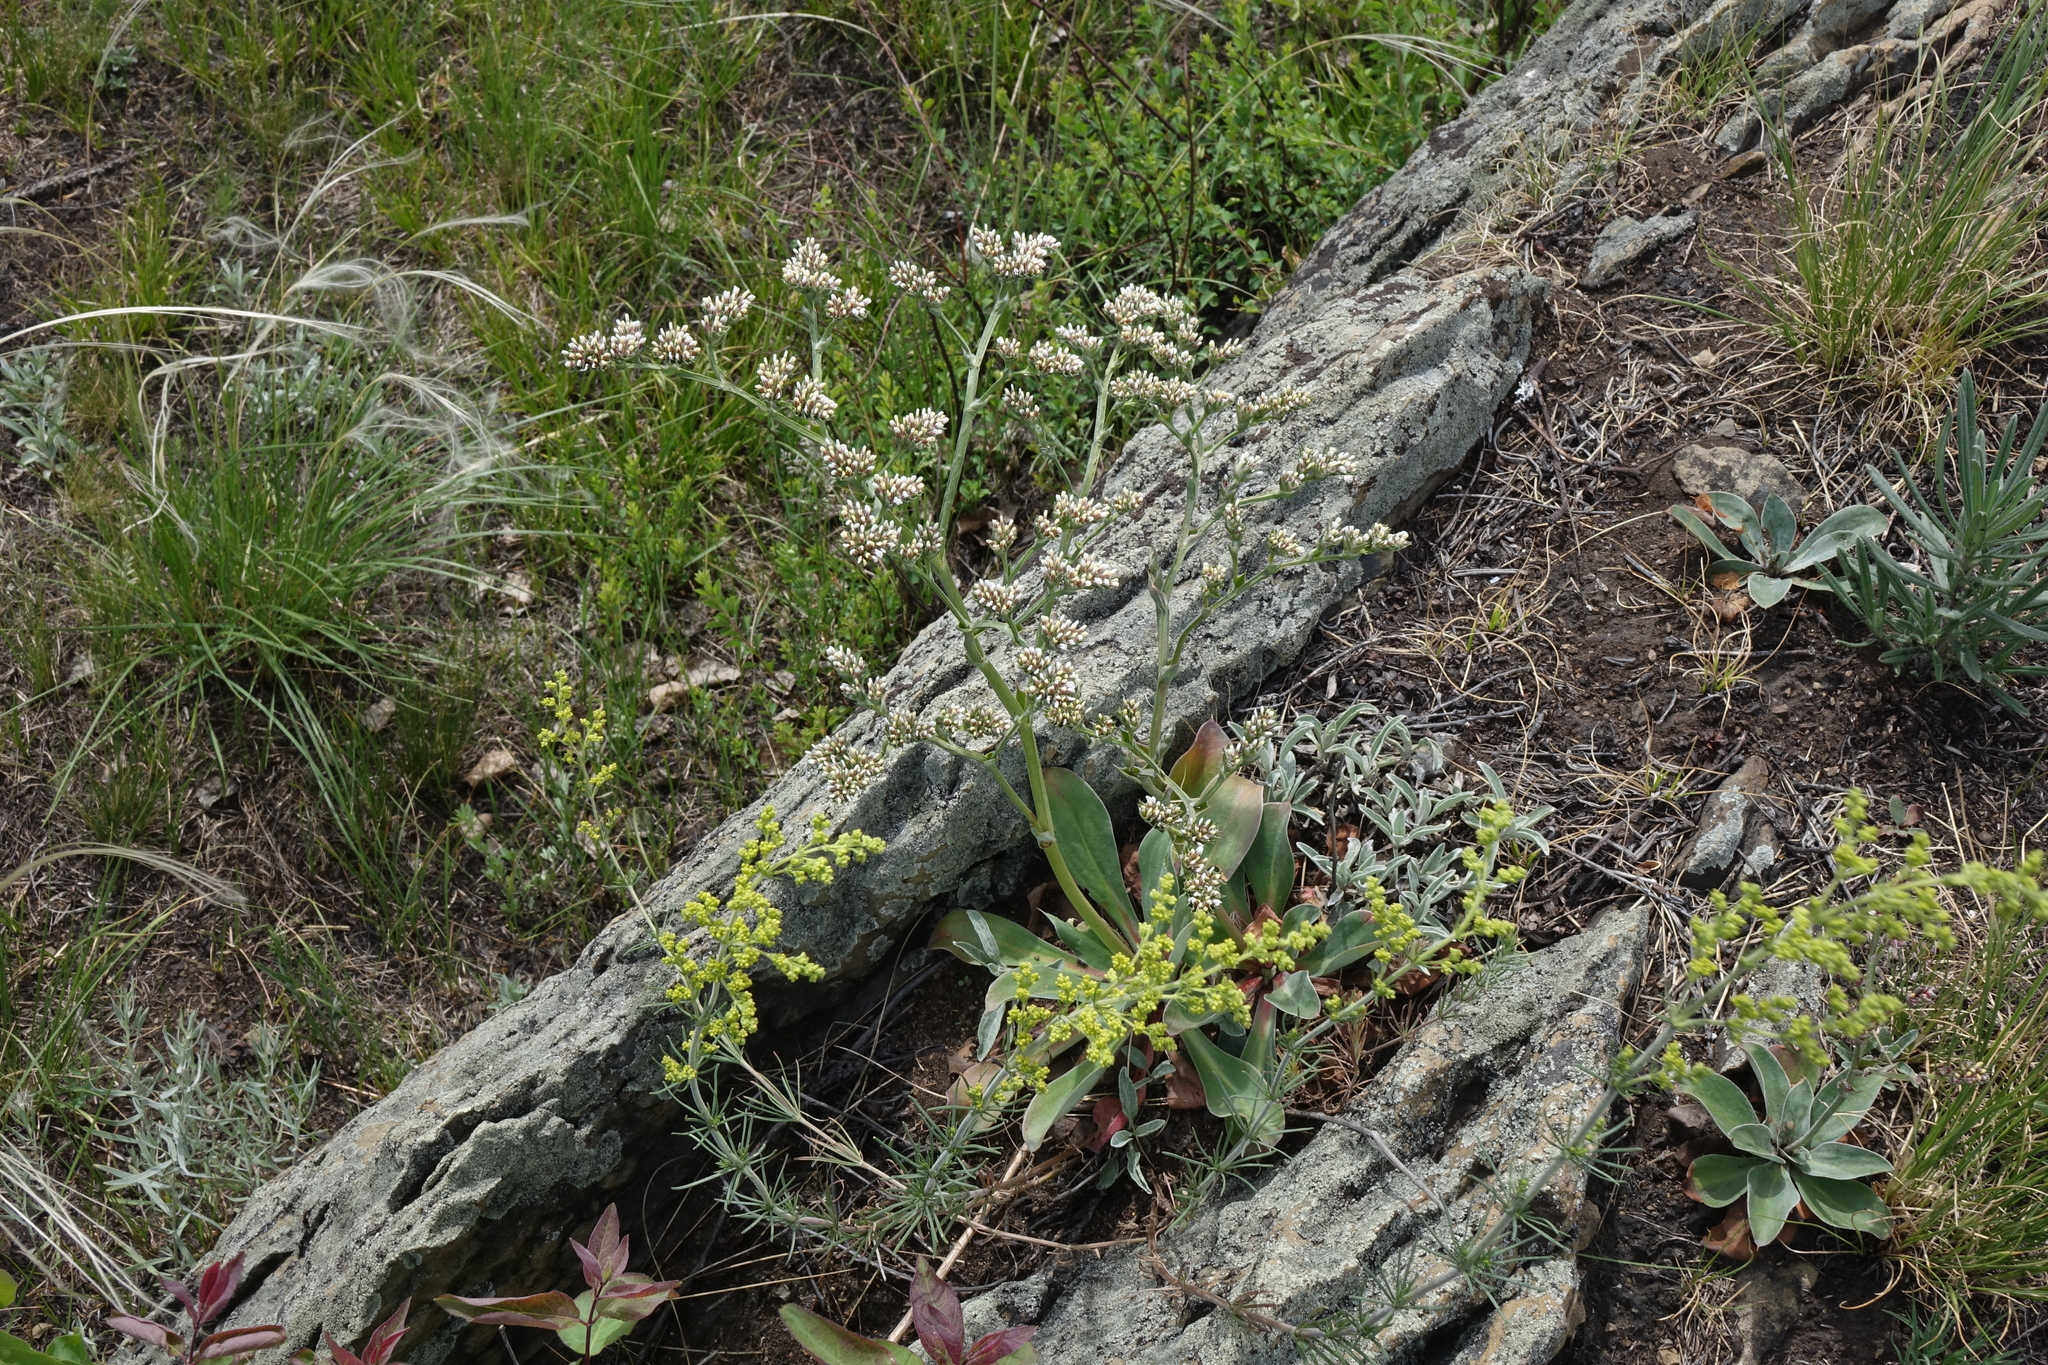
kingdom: Plantae
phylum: Tracheophyta
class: Magnoliopsida
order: Caryophyllales
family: Plumbaginaceae
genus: Goniolimon
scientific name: Goniolimon speciosum
